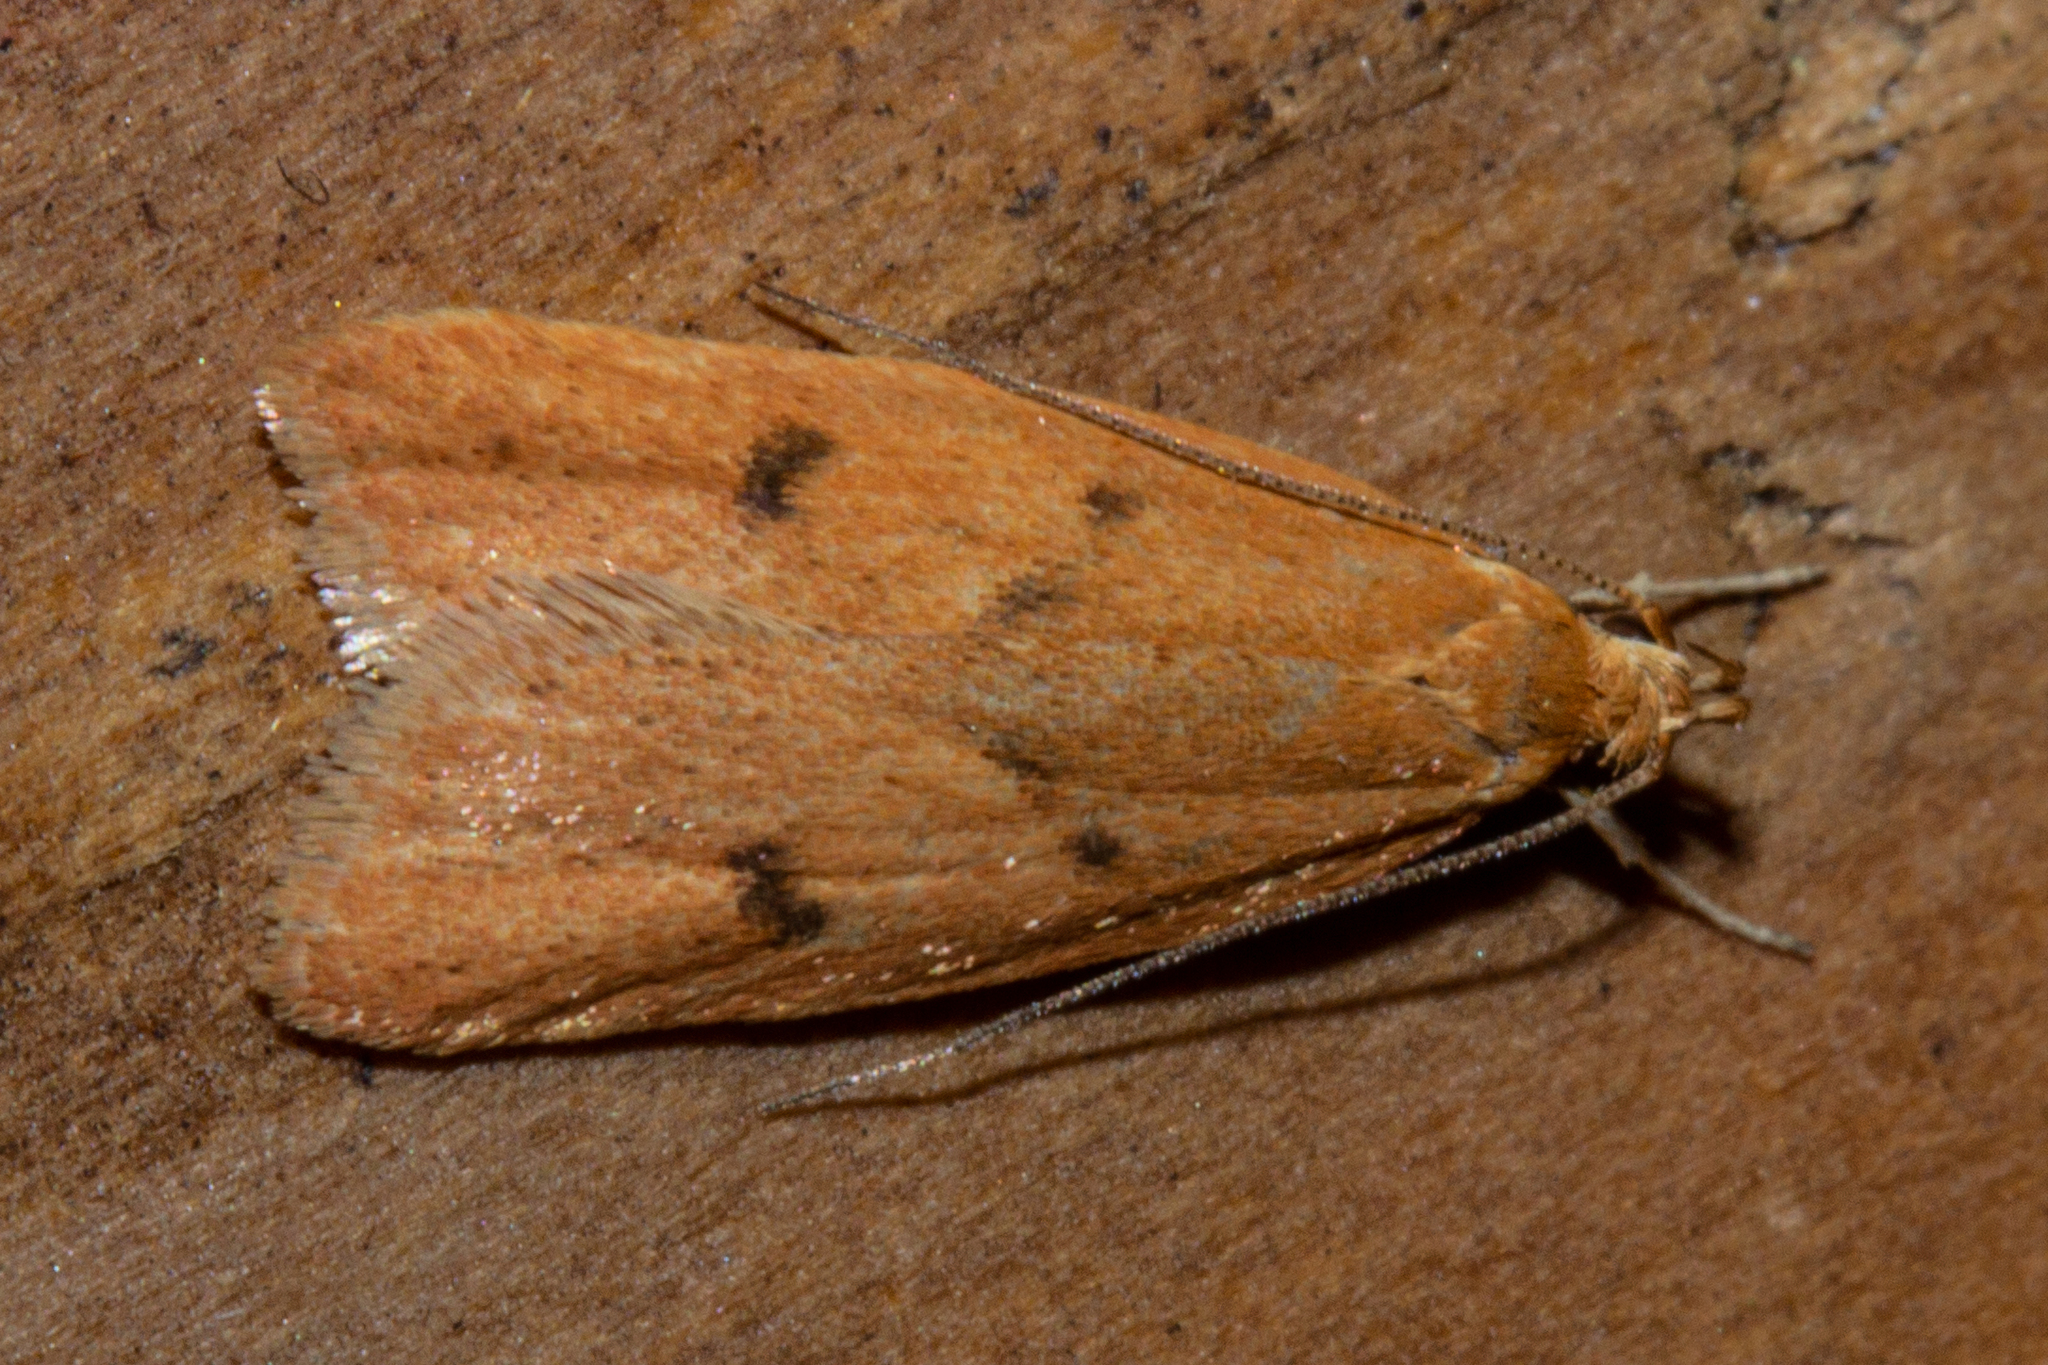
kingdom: Animalia
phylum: Arthropoda
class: Insecta
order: Lepidoptera
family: Oecophoridae
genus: Gymnobathra
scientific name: Gymnobathra sarcoxantha
